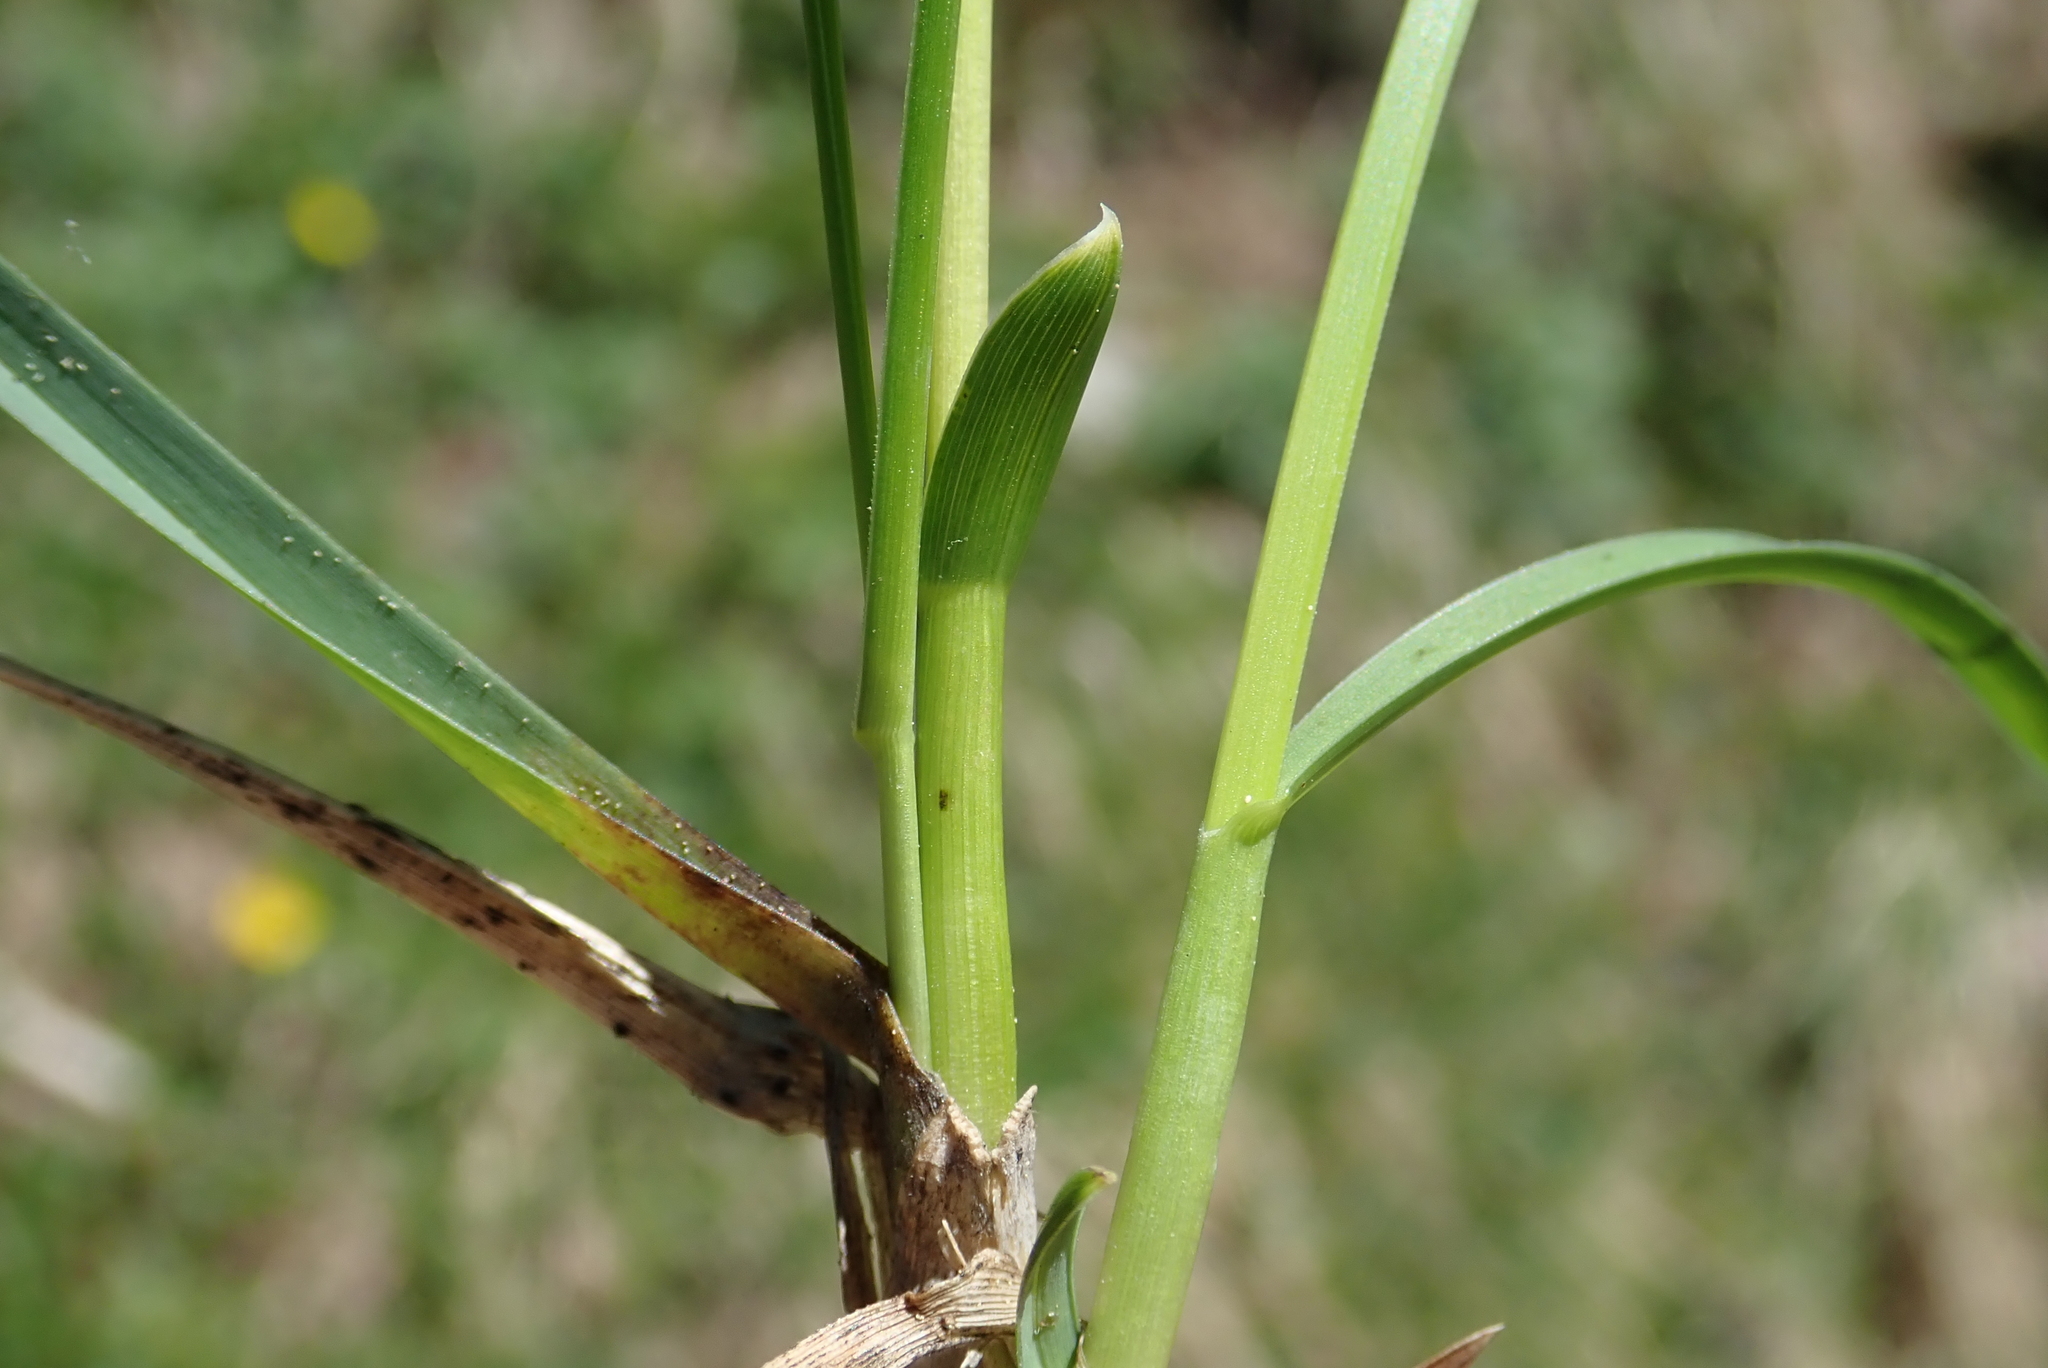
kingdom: Plantae
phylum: Tracheophyta
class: Liliopsida
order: Poales
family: Poaceae
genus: Sesleria
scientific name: Sesleria caerulea
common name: Blue moor-grass
